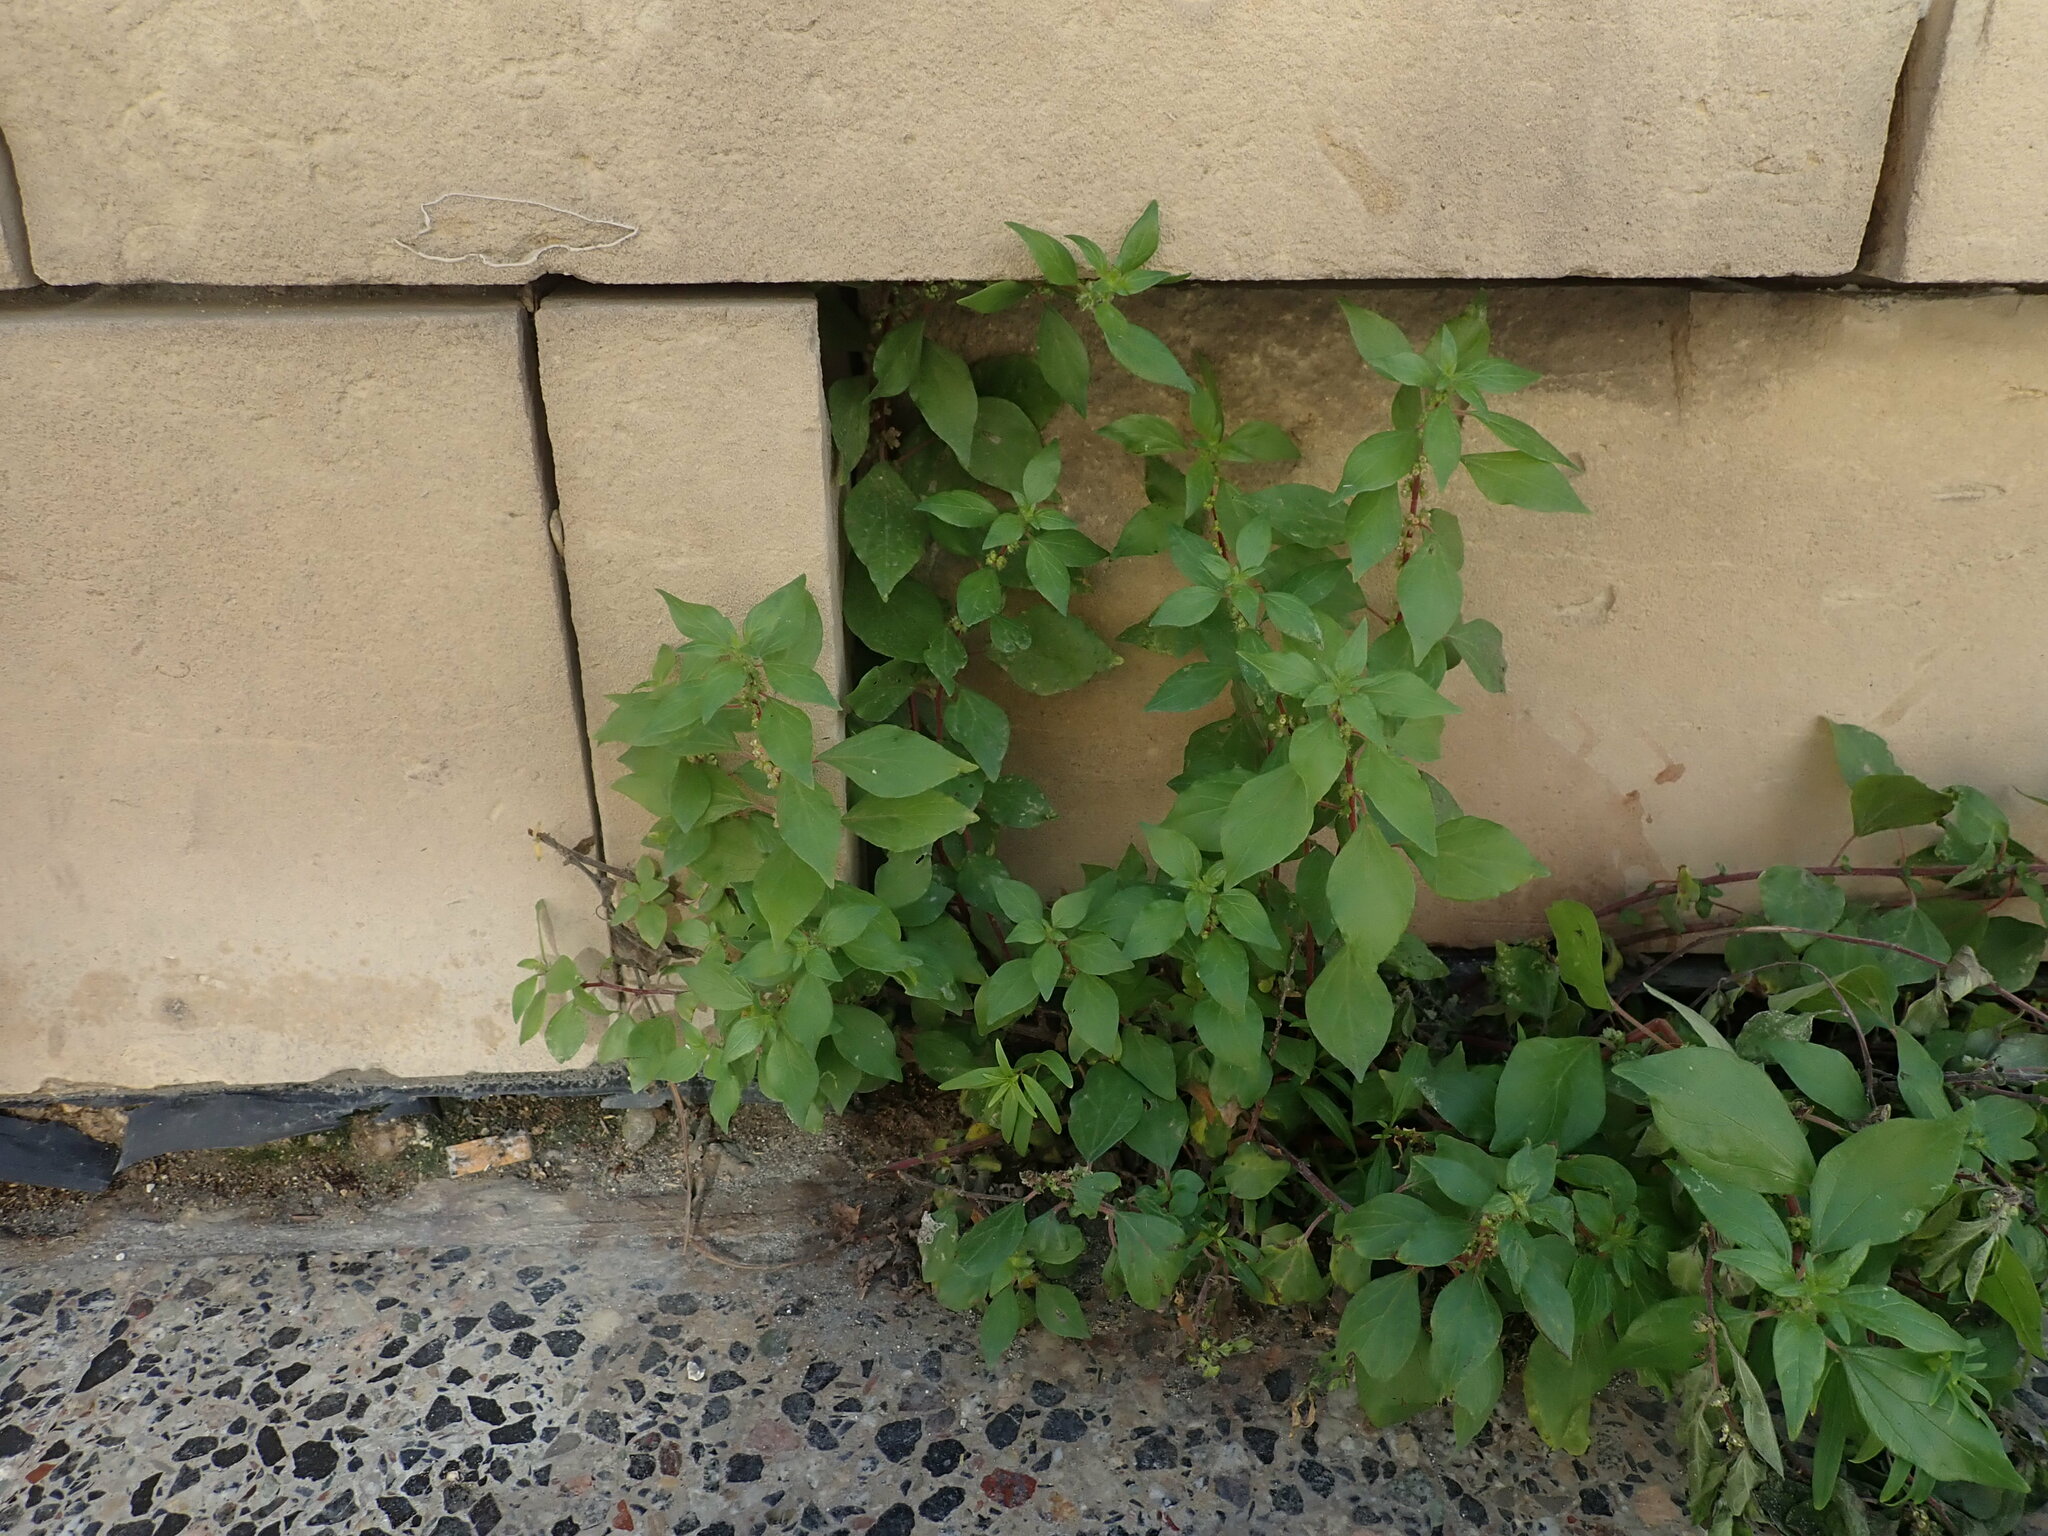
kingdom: Plantae
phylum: Tracheophyta
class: Magnoliopsida
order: Rosales
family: Urticaceae
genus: Parietaria
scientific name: Parietaria judaica
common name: Pellitory-of-the-wall
